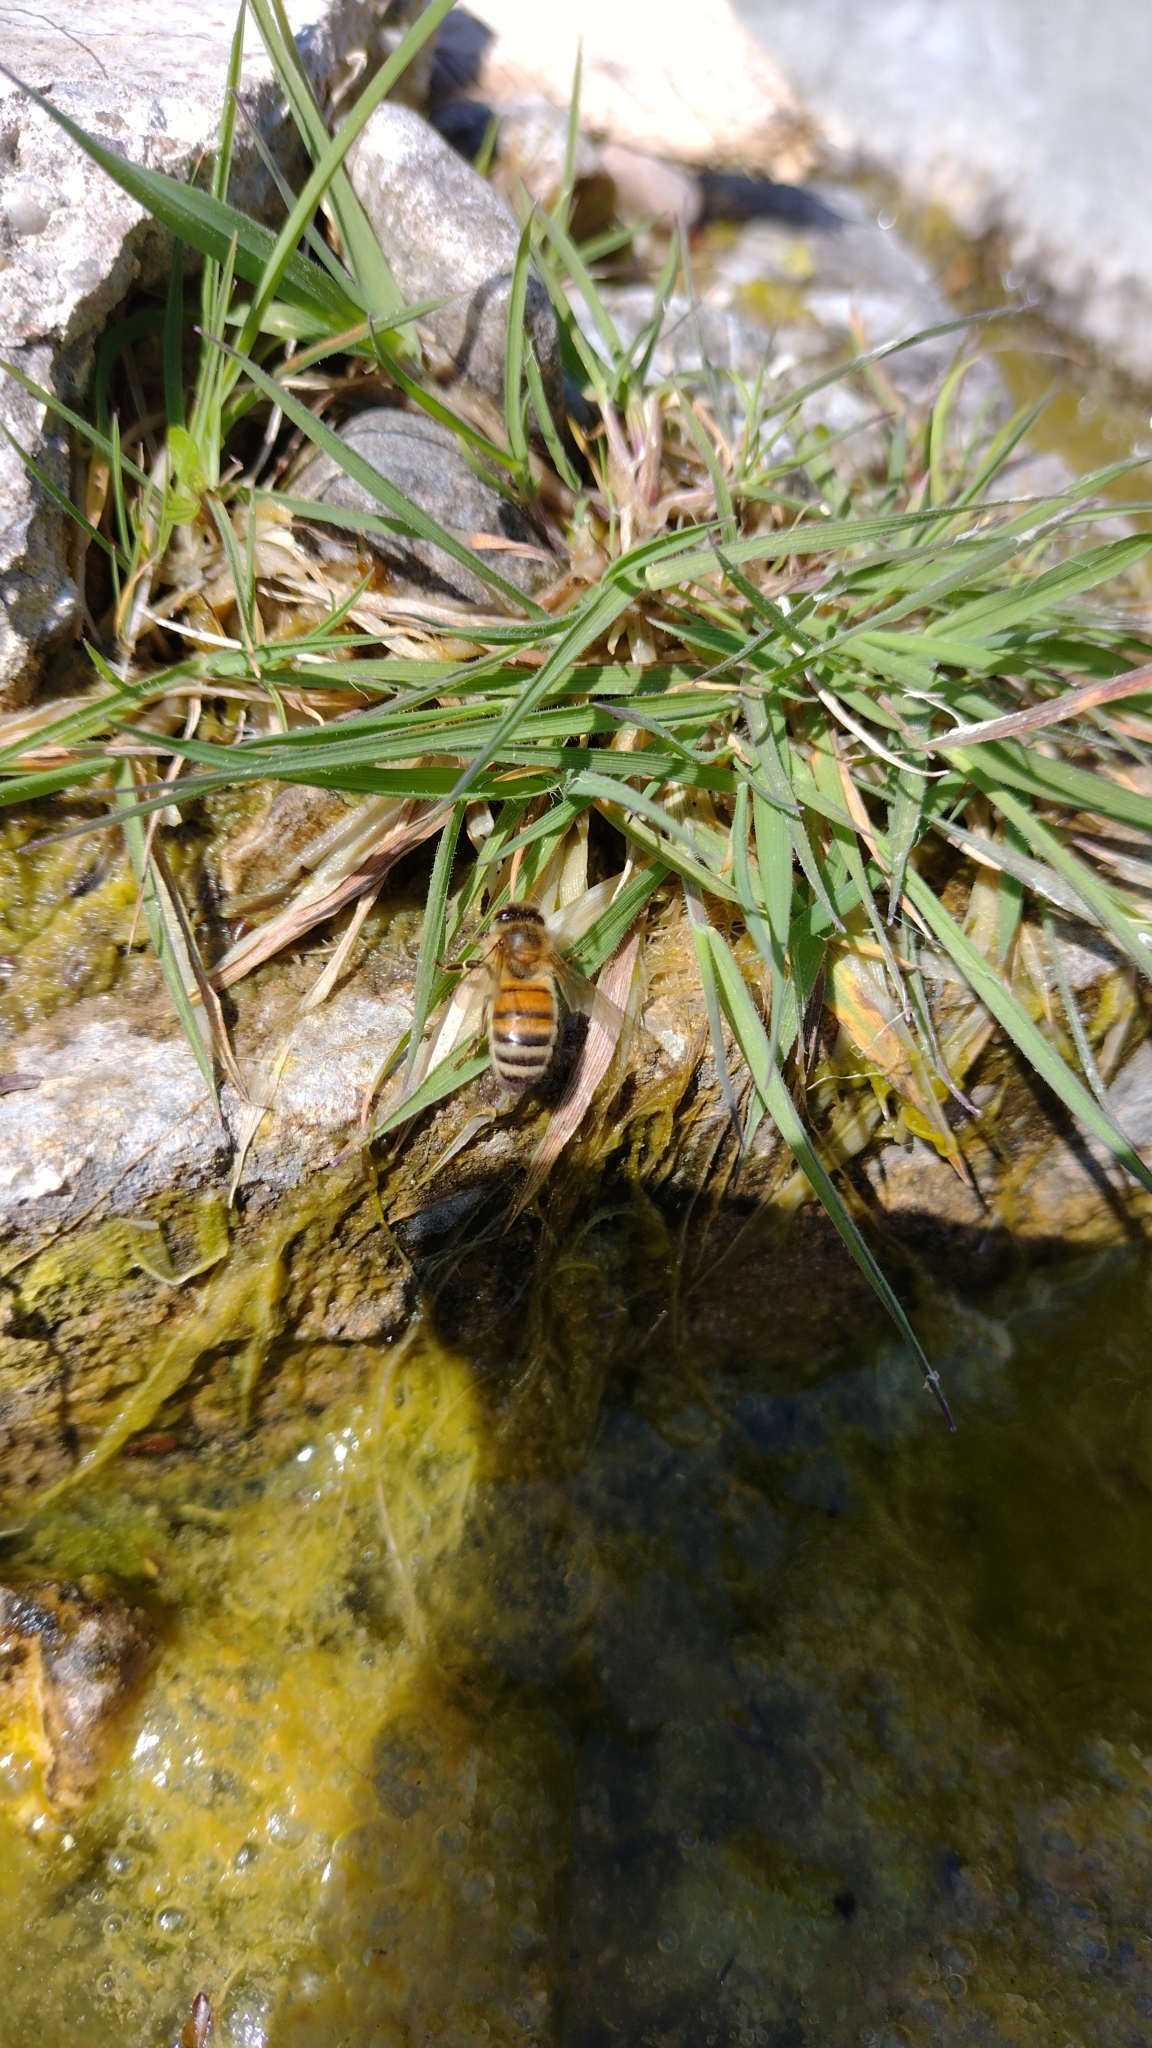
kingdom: Animalia
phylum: Arthropoda
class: Insecta
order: Hymenoptera
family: Apidae
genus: Apis
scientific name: Apis mellifera
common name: Honey bee
